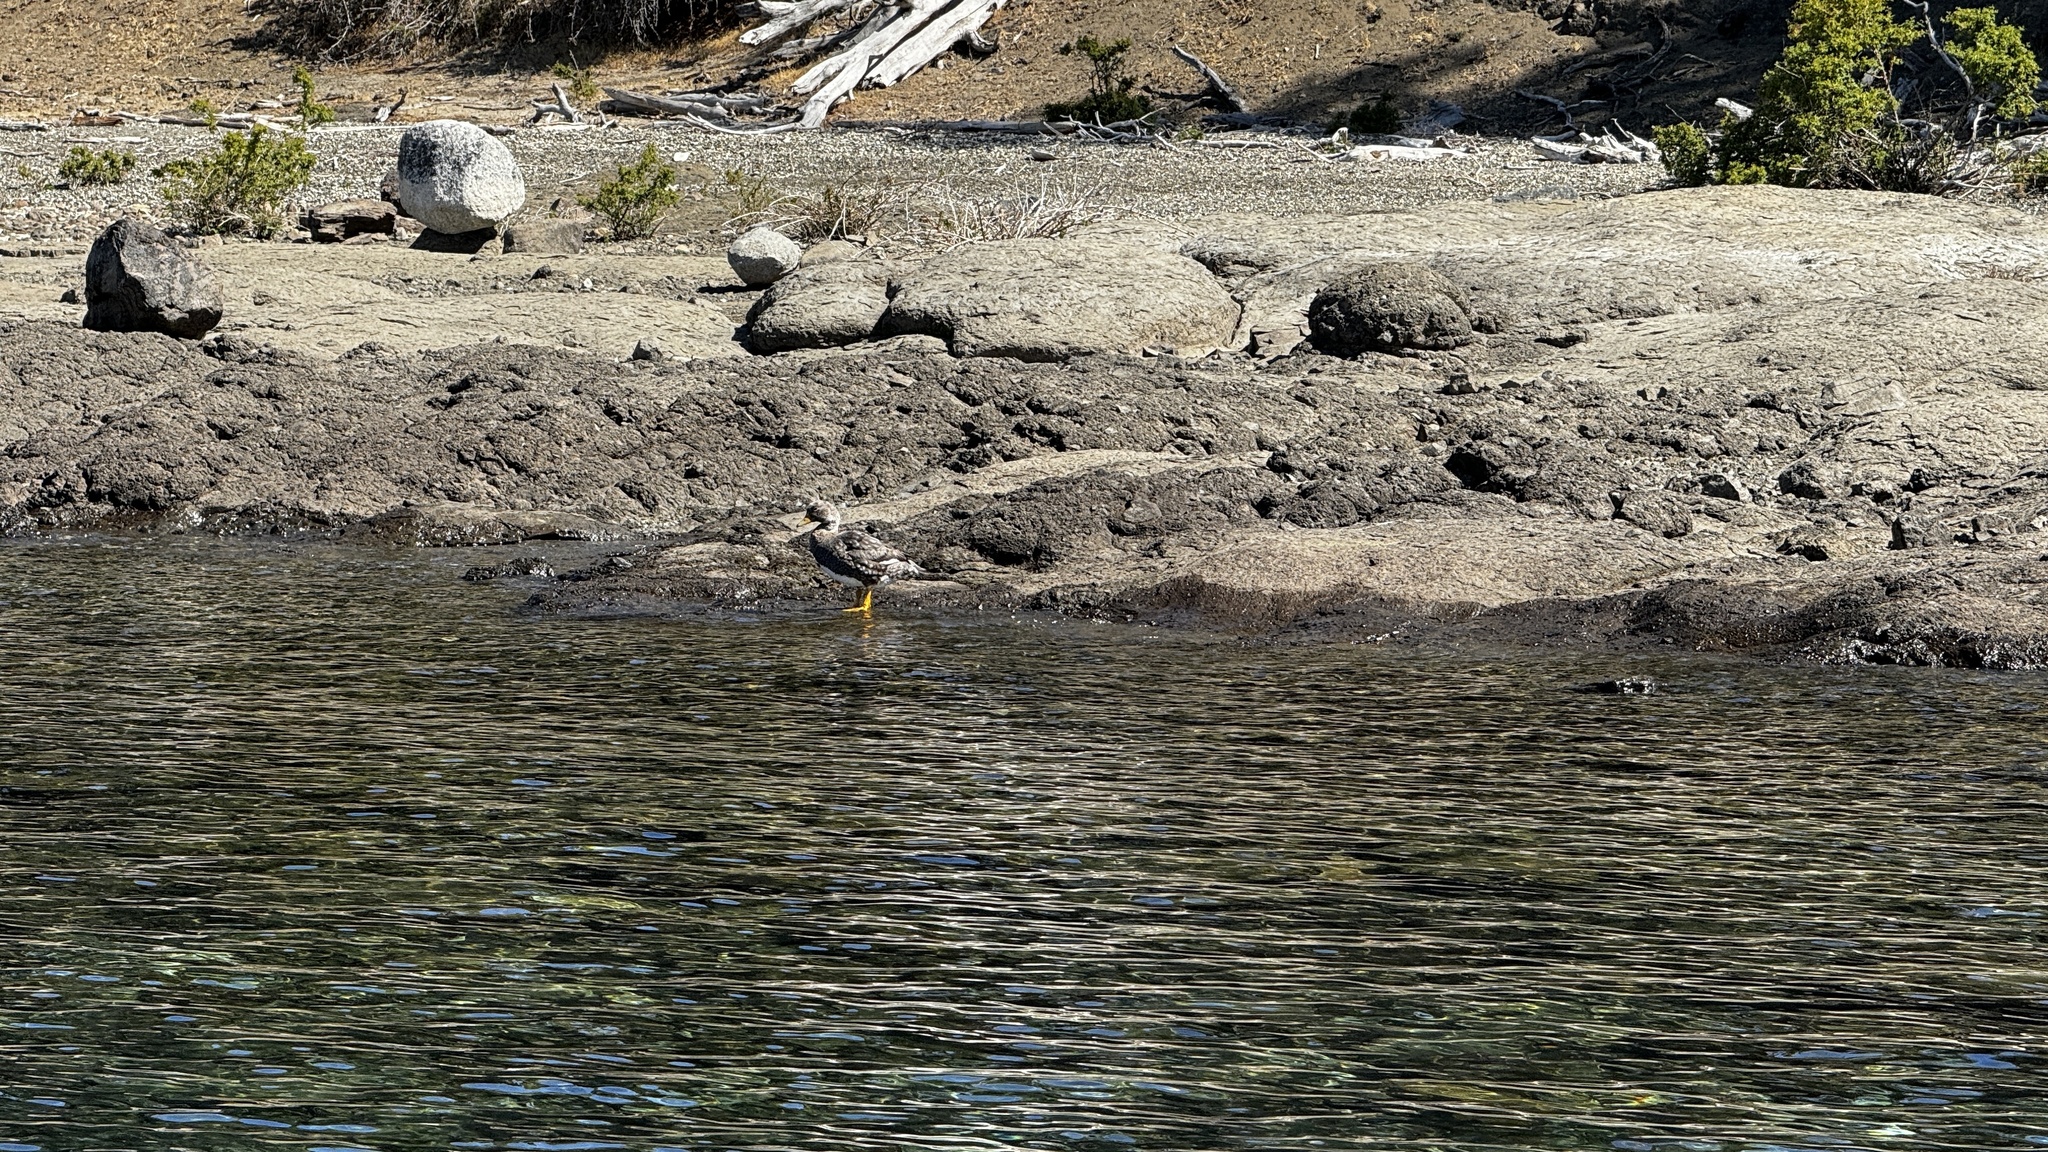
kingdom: Animalia
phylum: Chordata
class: Aves
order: Anseriformes
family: Anatidae
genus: Tachyeres
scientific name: Tachyeres patachonicus
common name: Flying steamer duck
